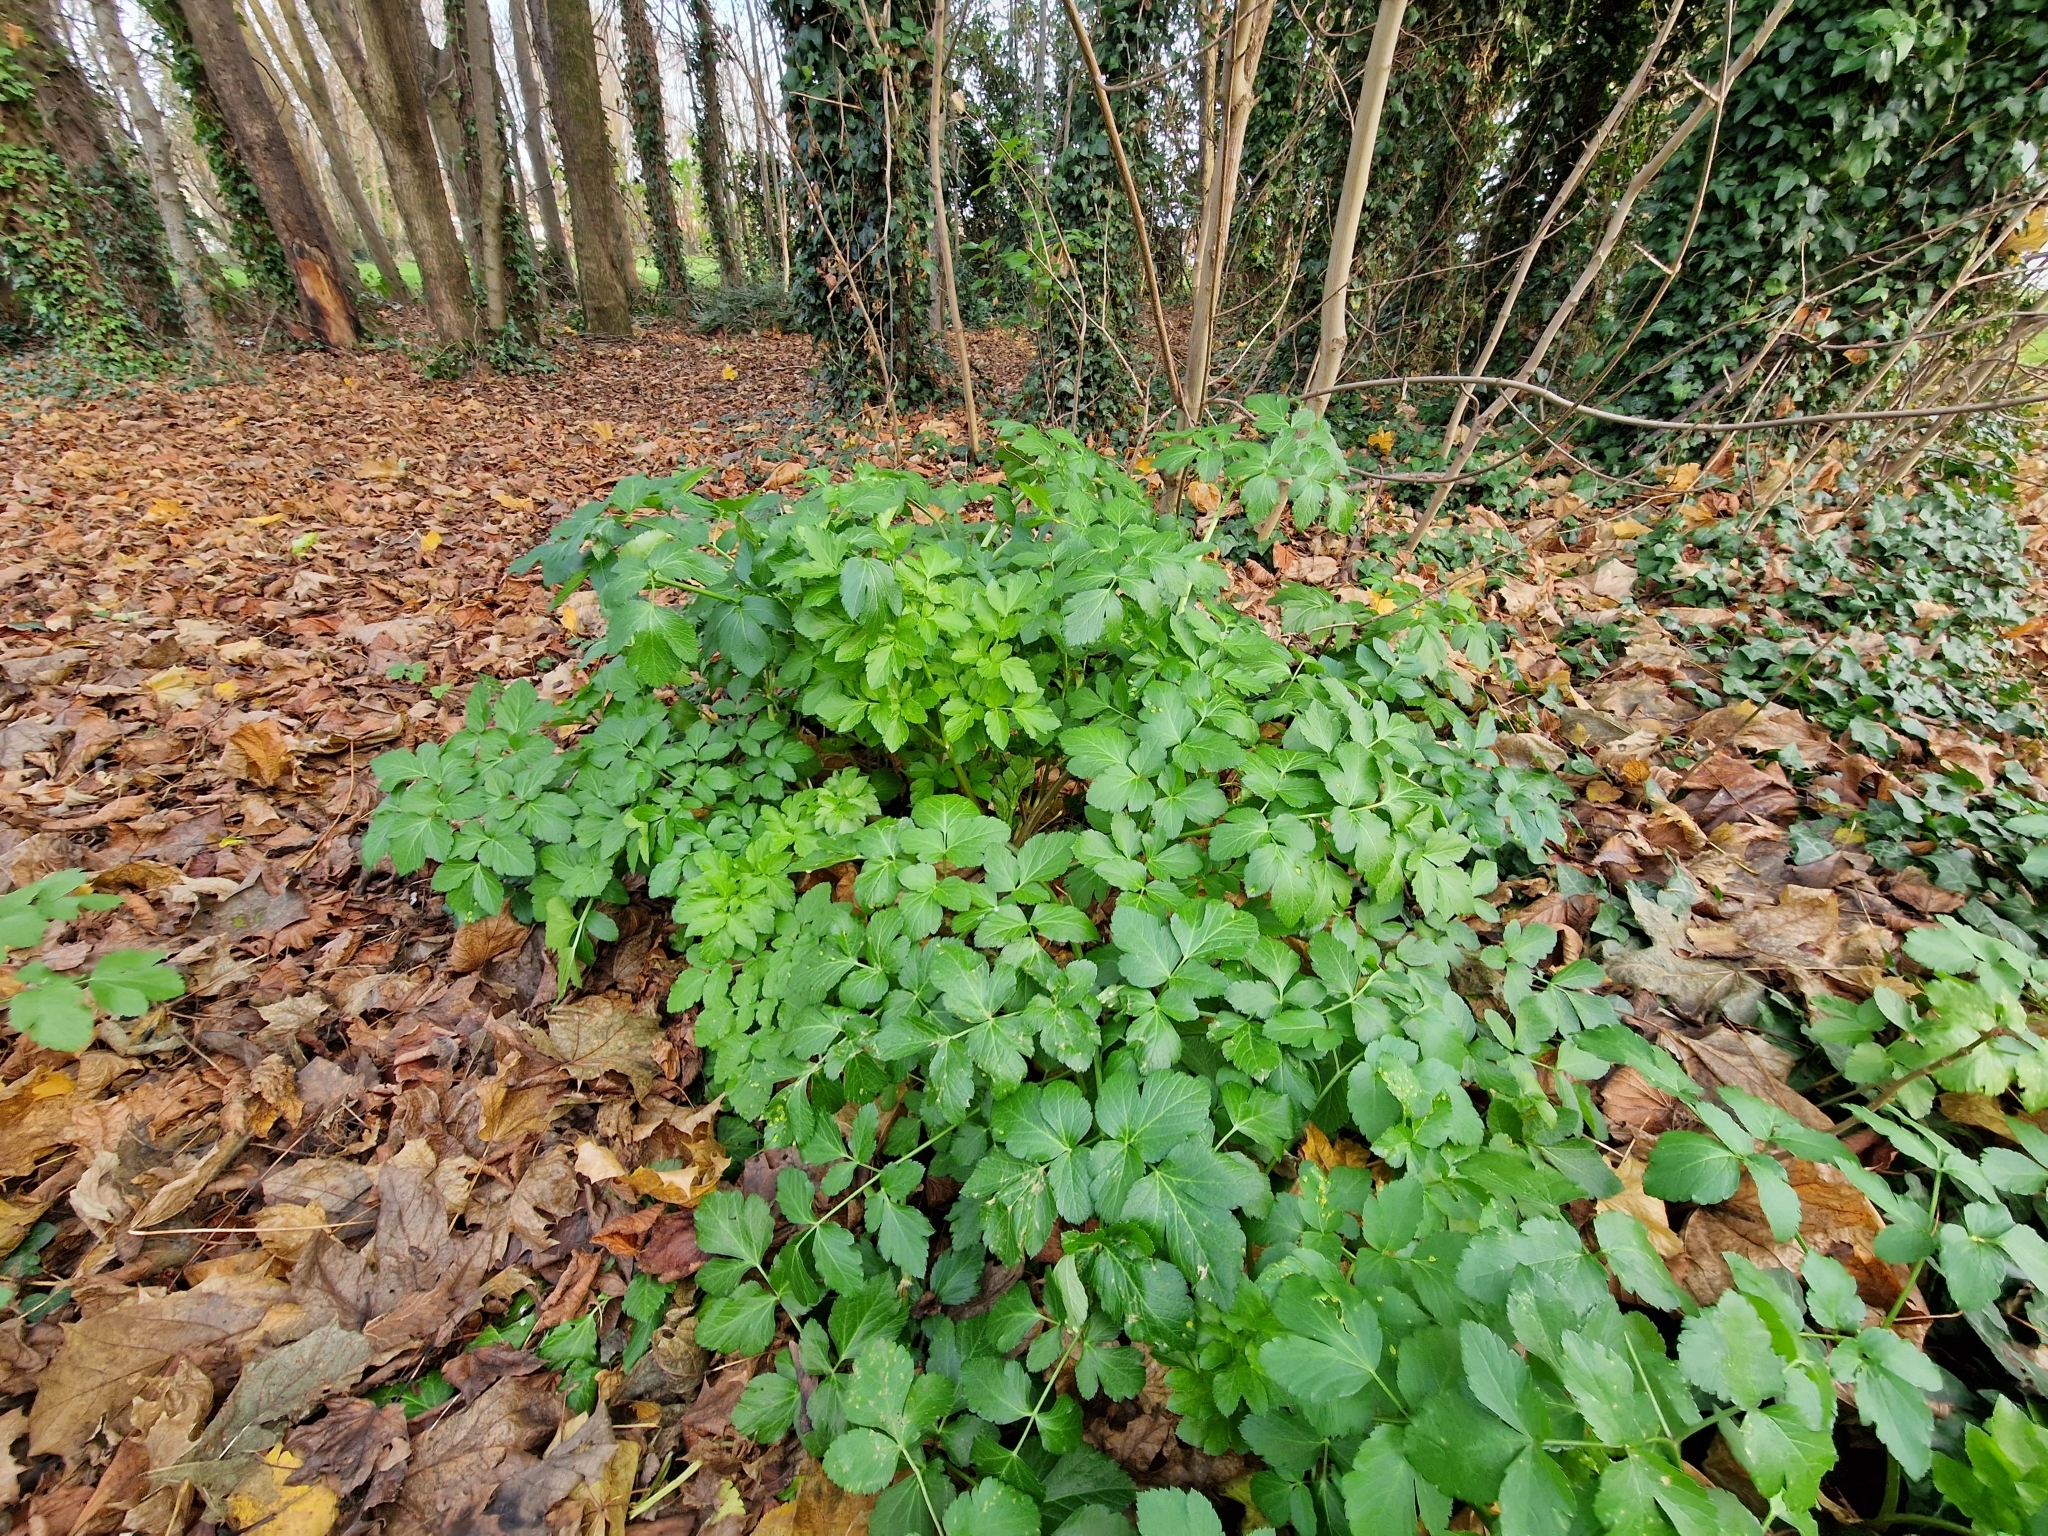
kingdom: Plantae
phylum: Tracheophyta
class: Magnoliopsida
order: Apiales
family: Apiaceae
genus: Smyrnium
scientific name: Smyrnium olusatrum
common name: Alexanders
